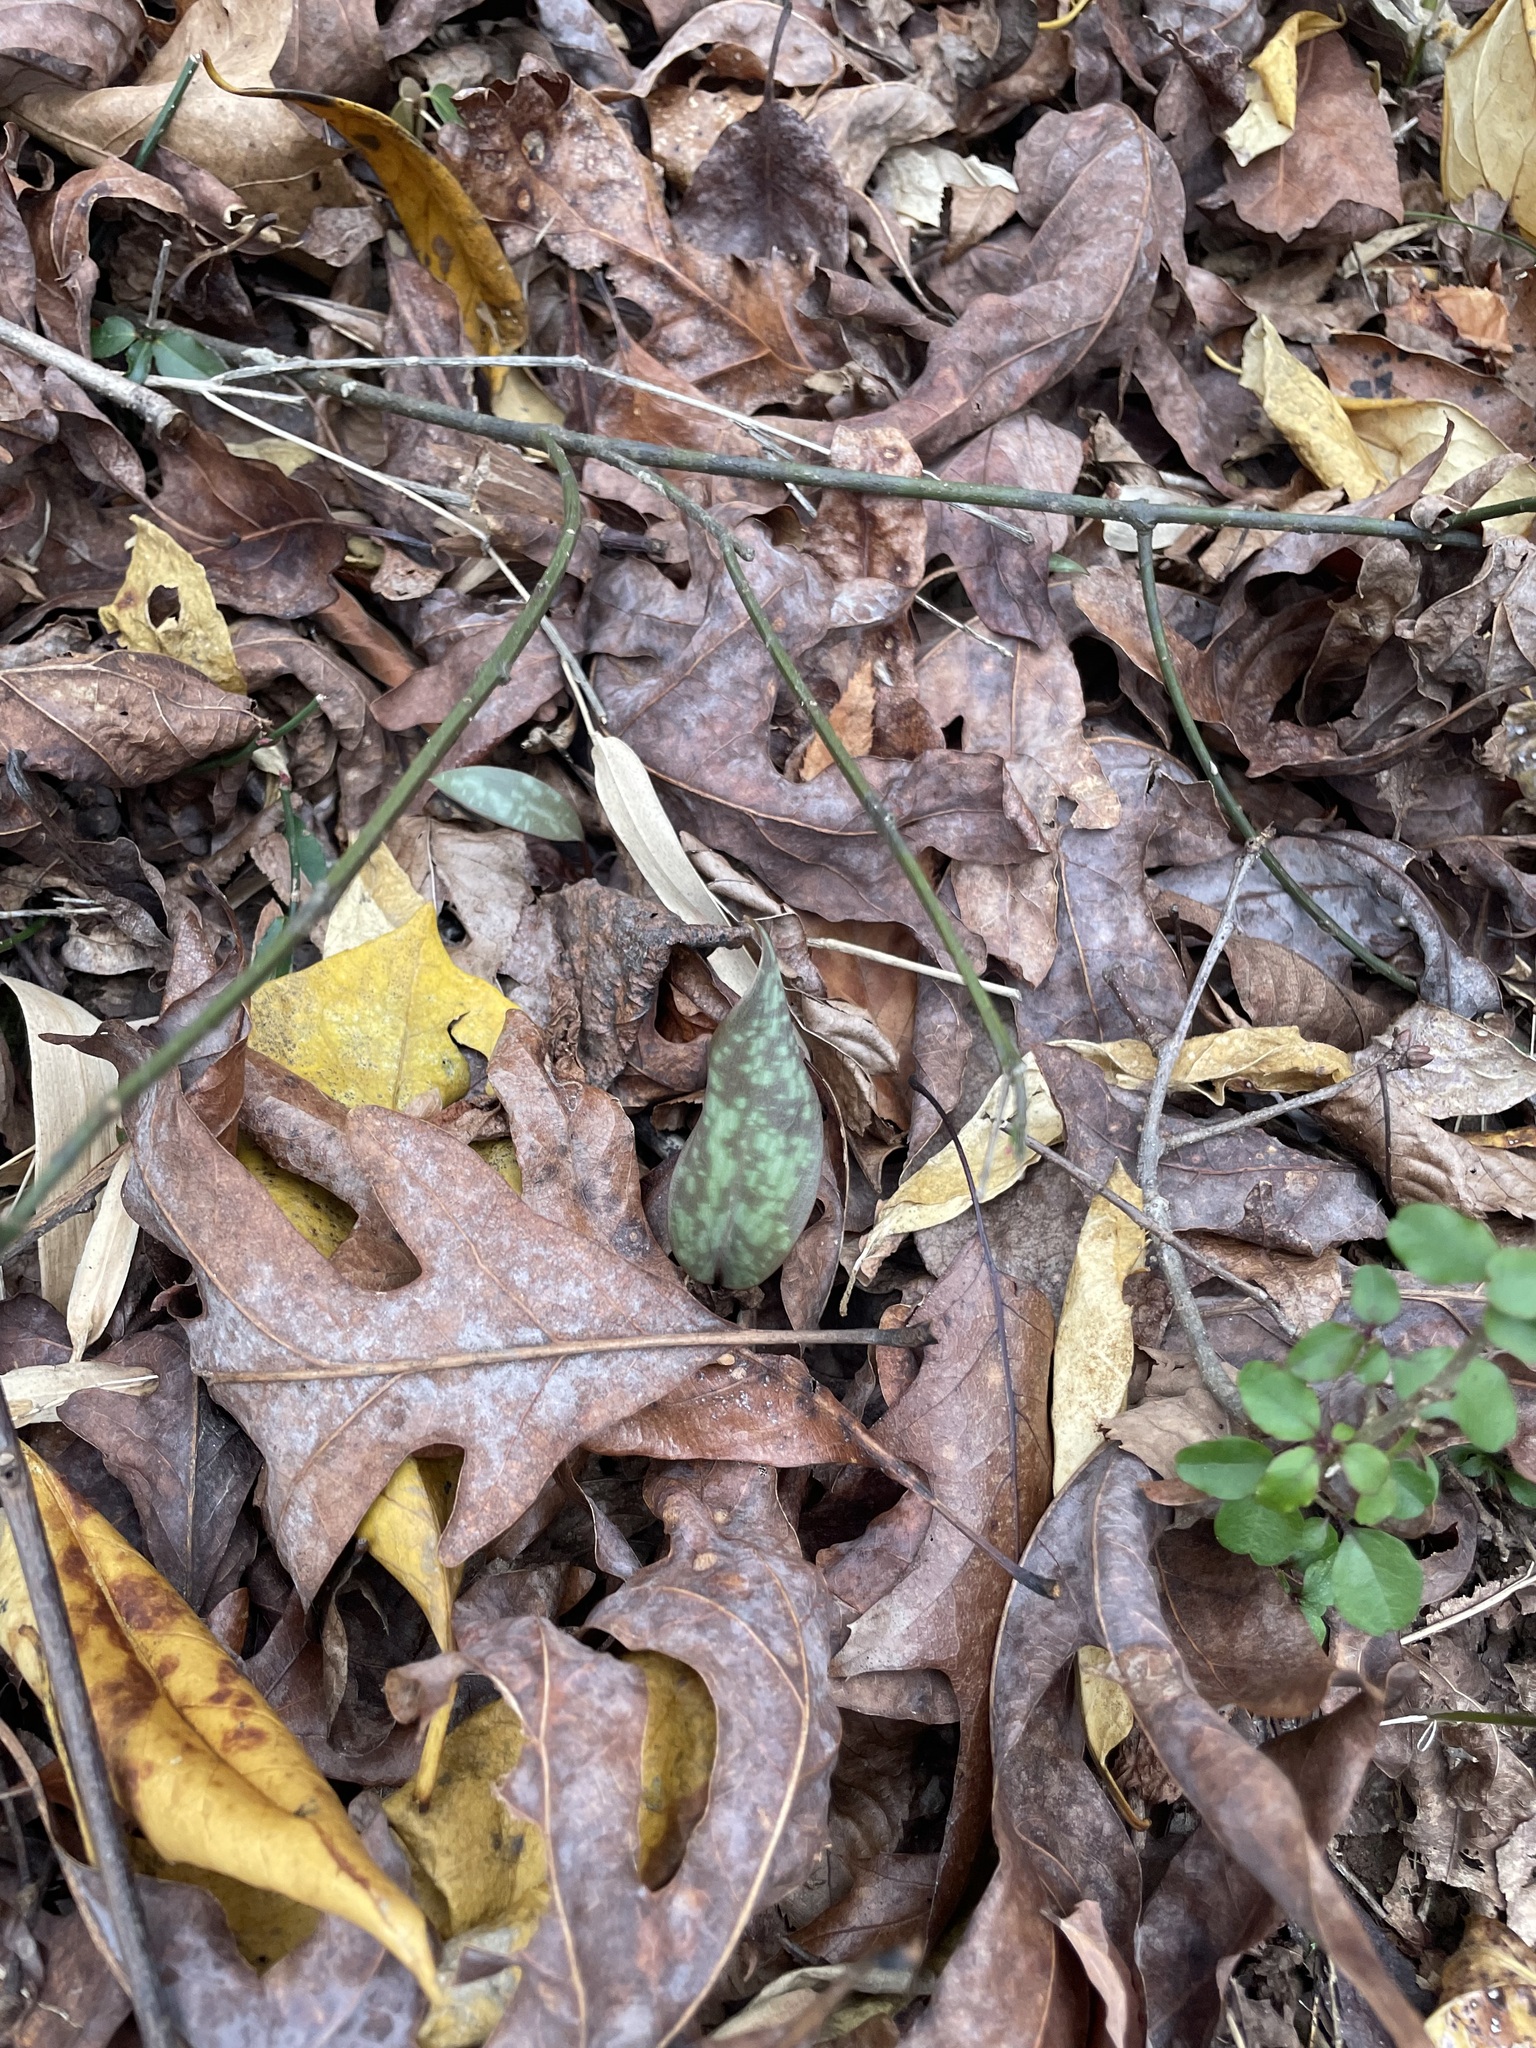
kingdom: Plantae
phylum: Tracheophyta
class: Liliopsida
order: Liliales
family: Liliaceae
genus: Erythronium
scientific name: Erythronium umbilicatum
